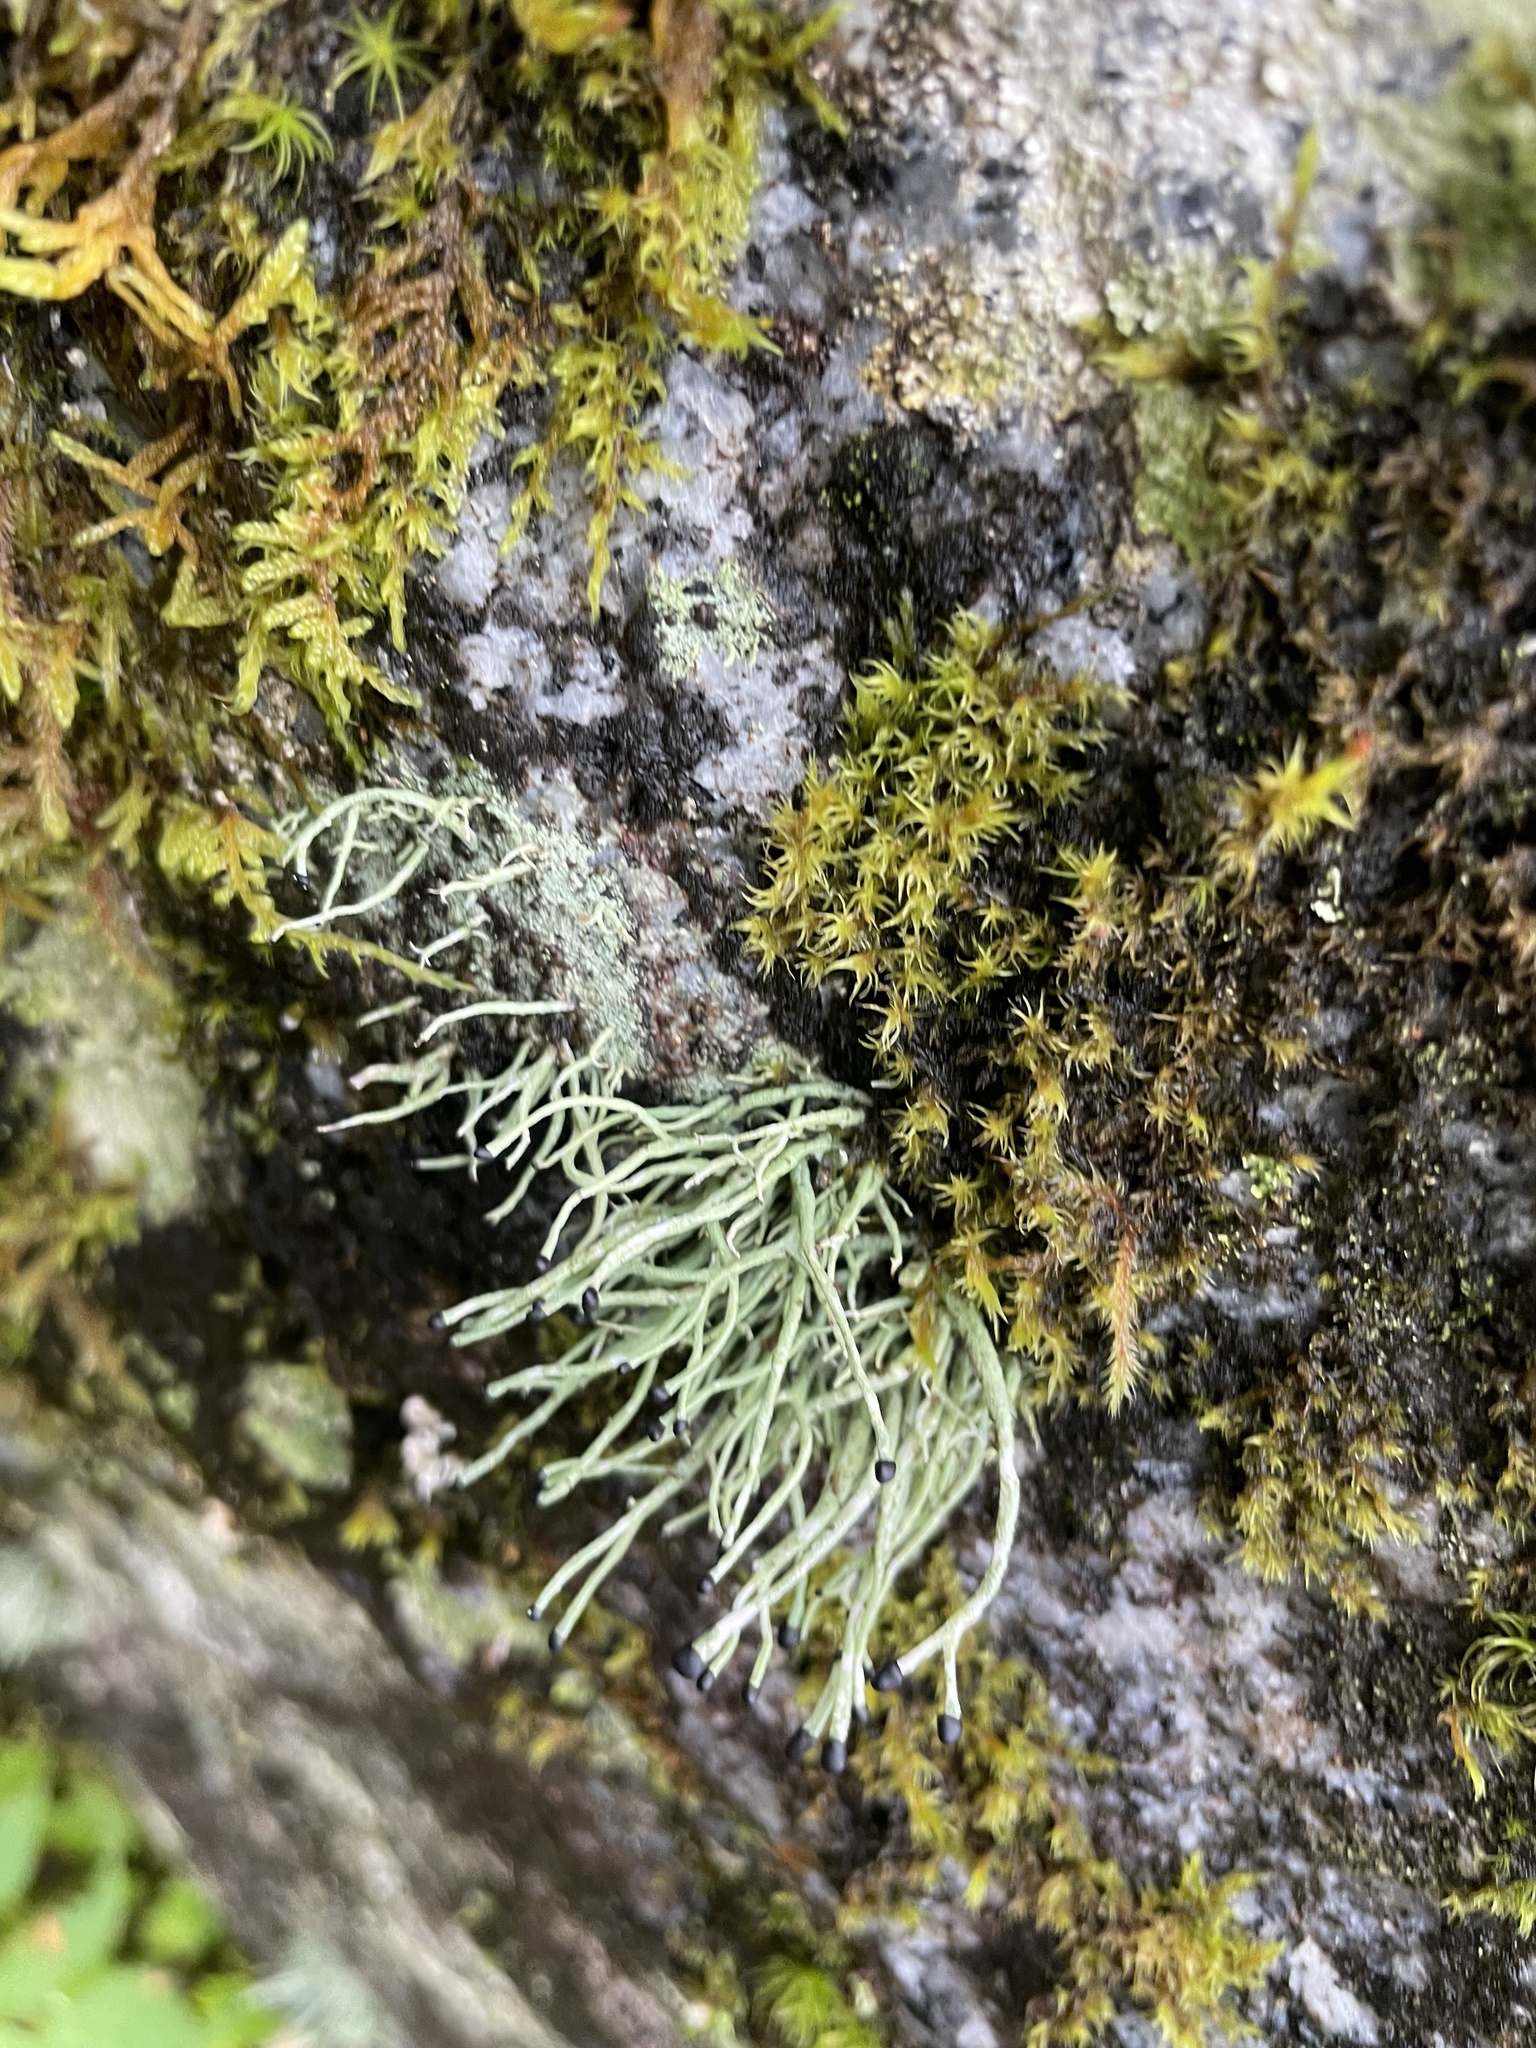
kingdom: Fungi
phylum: Ascomycota
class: Lecanoromycetes
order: Lecanorales
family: Cladoniaceae
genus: Pilophorus
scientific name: Pilophorus acicularis
